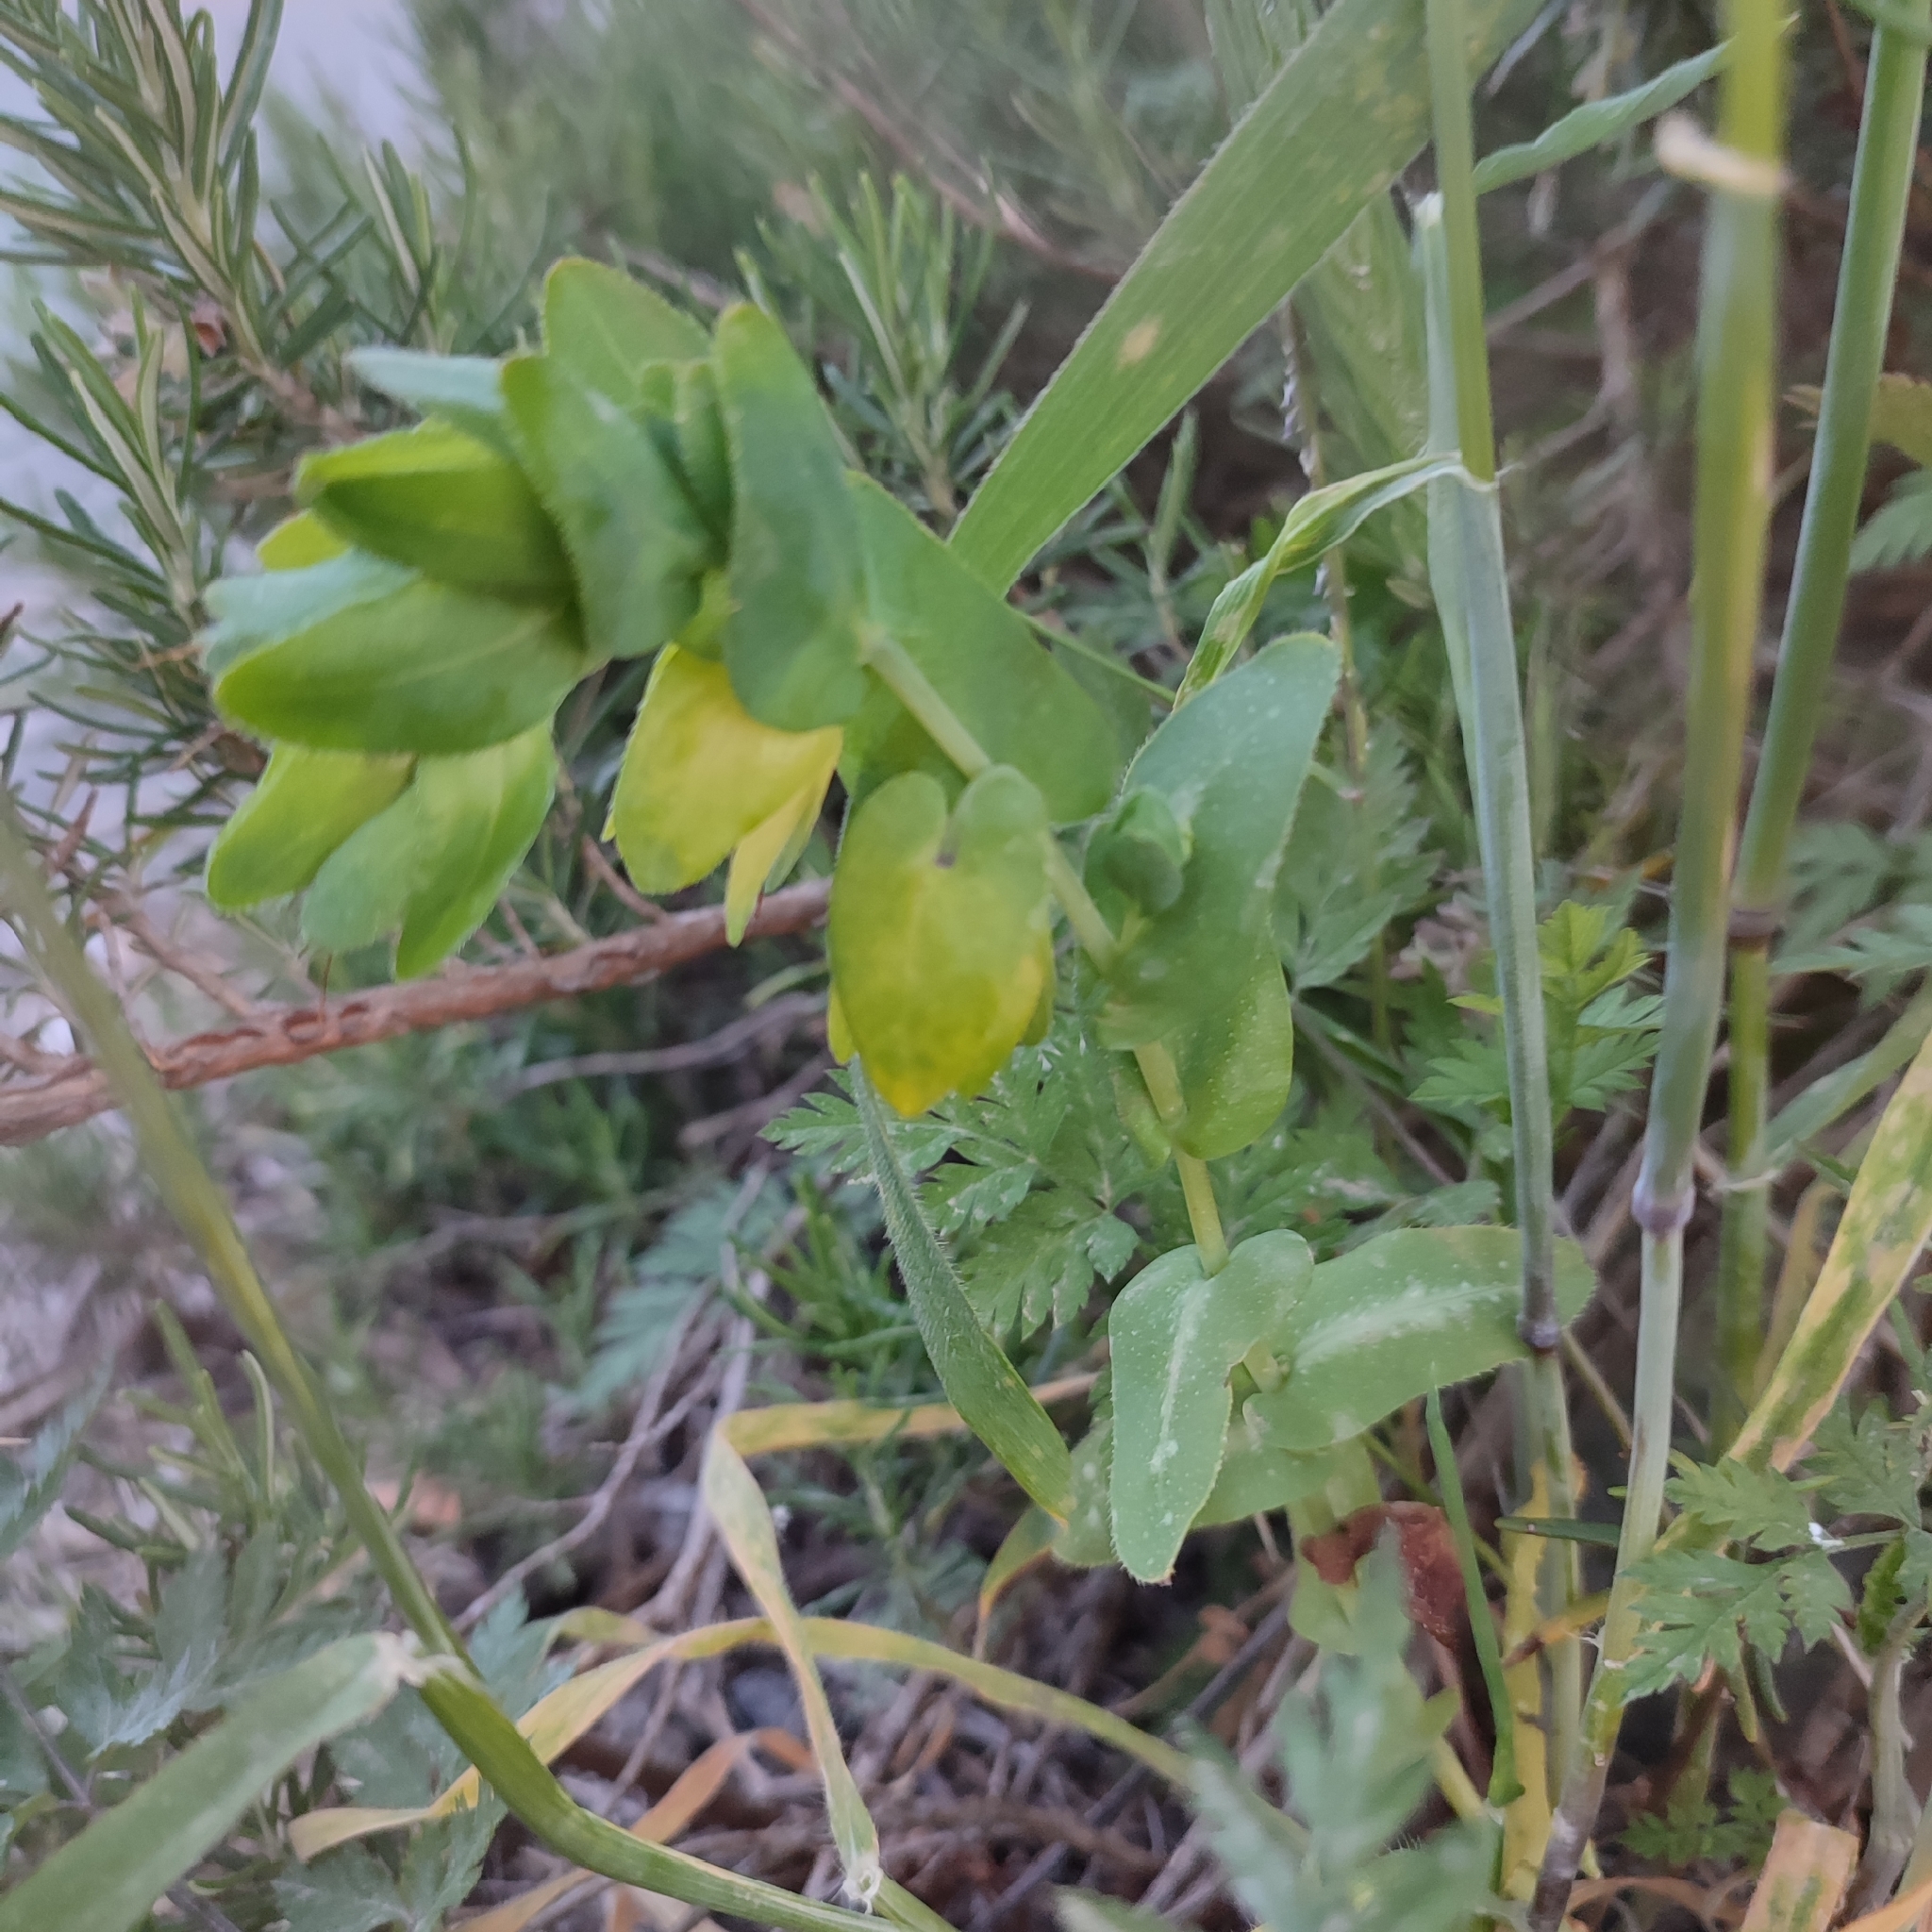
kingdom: Plantae
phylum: Tracheophyta
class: Magnoliopsida
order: Boraginales
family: Boraginaceae
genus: Cerinthe
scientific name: Cerinthe major
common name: Greater honeywort
